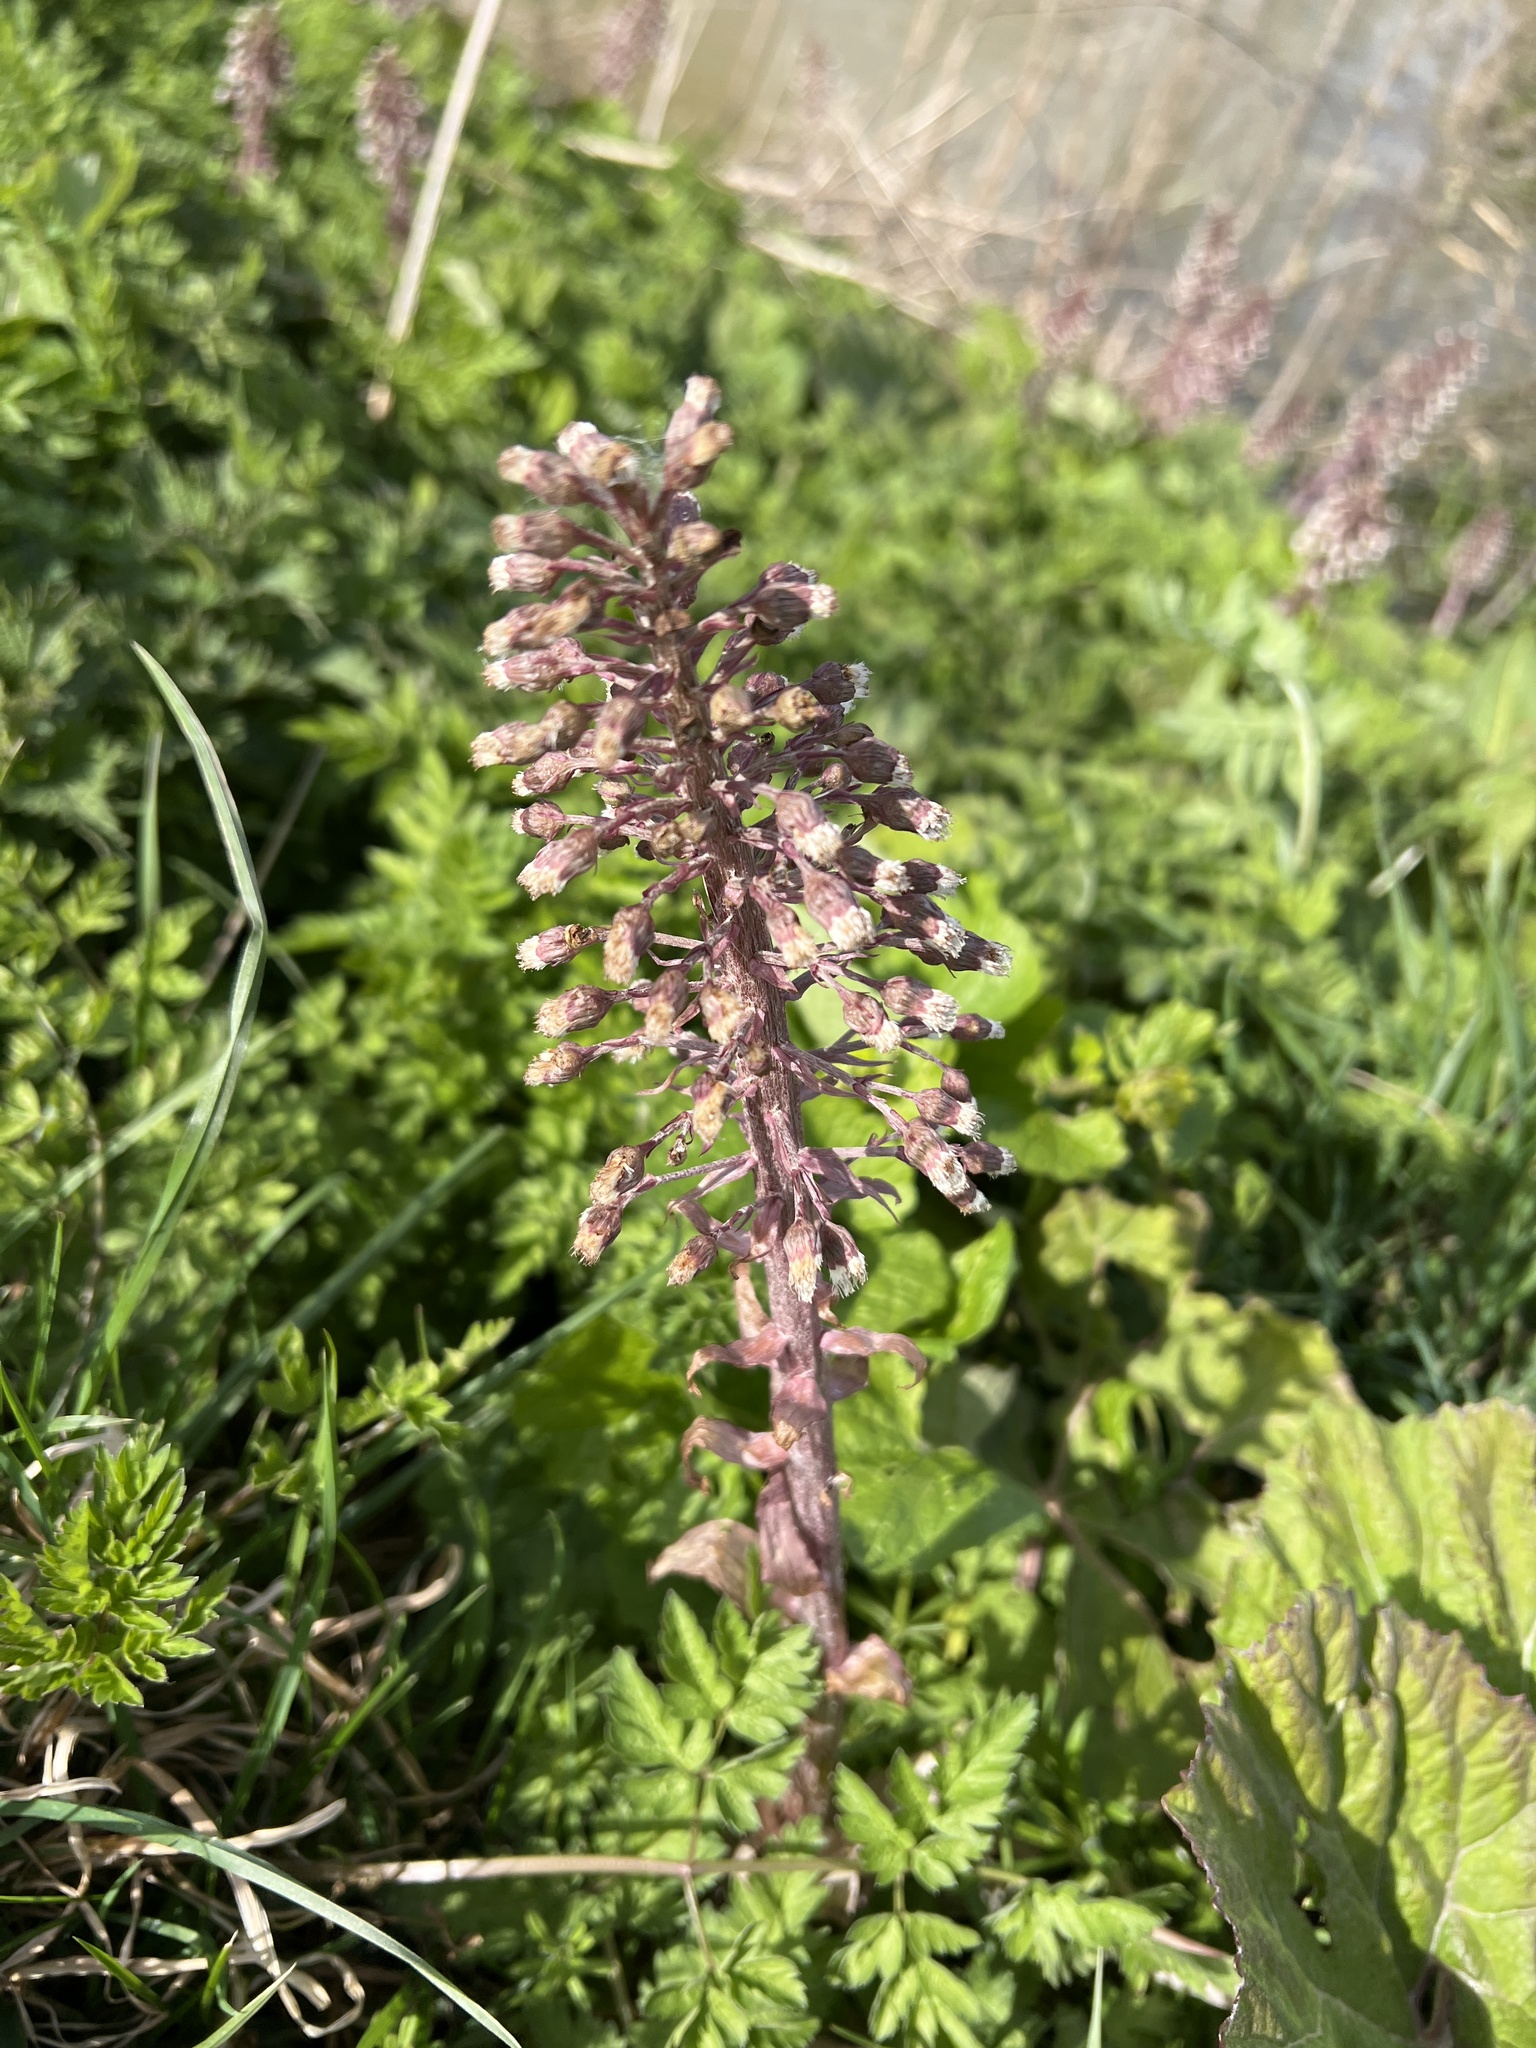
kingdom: Plantae
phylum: Tracheophyta
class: Magnoliopsida
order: Asterales
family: Asteraceae
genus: Petasites
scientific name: Petasites hybridus
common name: Butterbur
